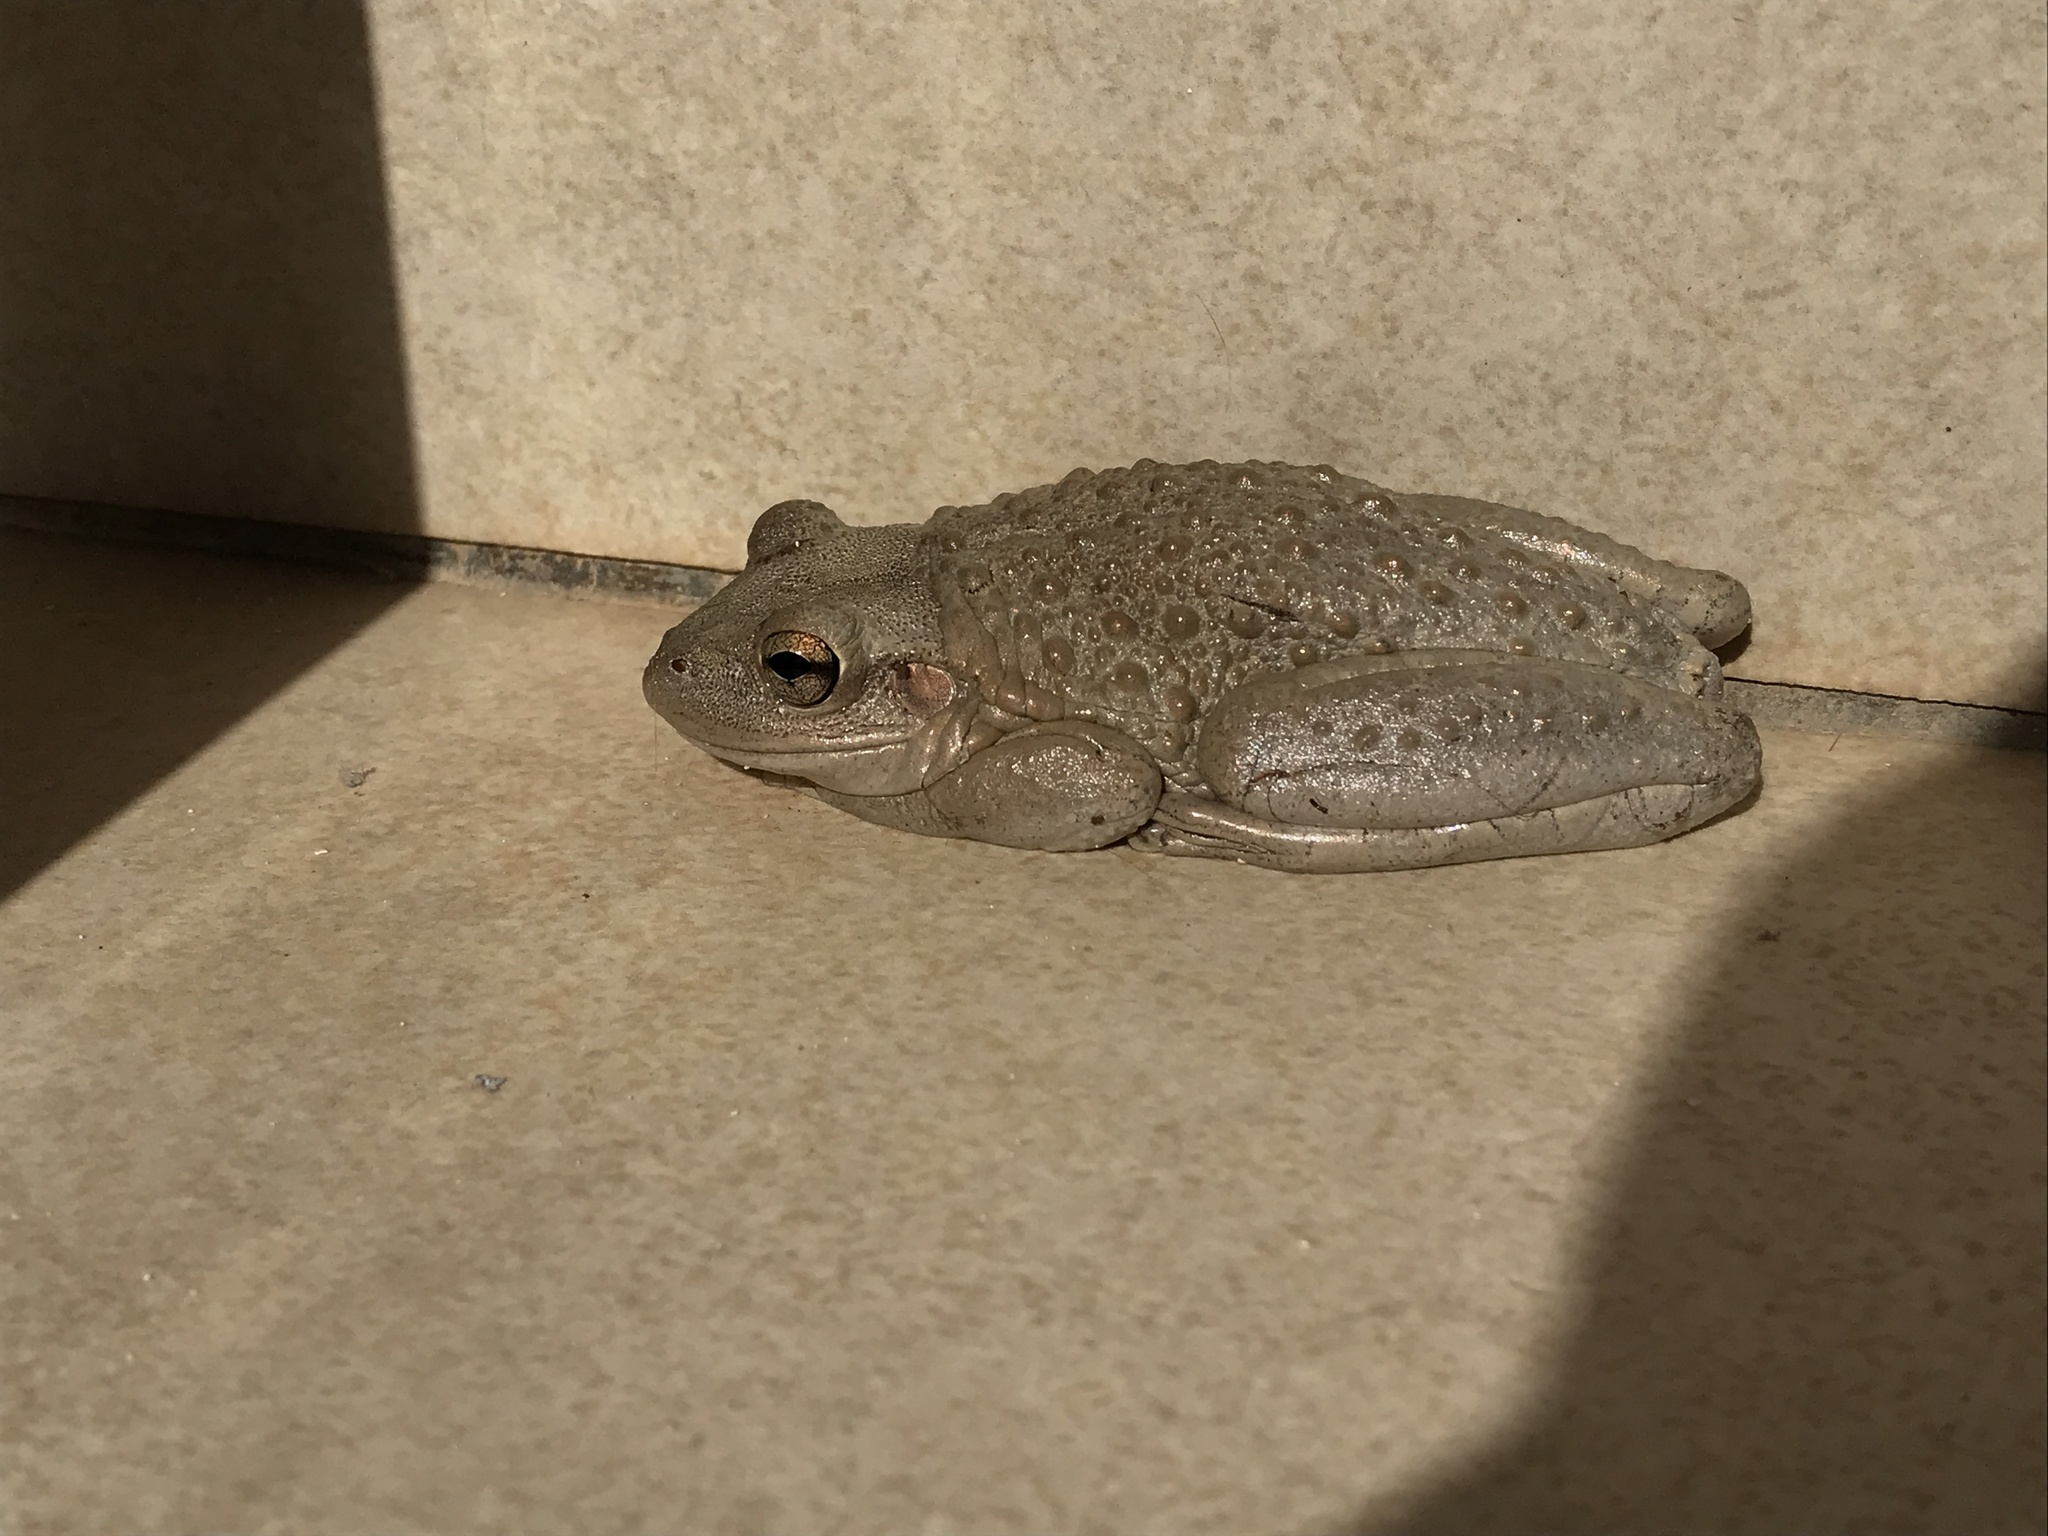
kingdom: Animalia
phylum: Chordata
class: Amphibia
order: Anura
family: Hylidae
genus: Osteopilus
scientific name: Osteopilus septentrionalis
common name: Cuban treefrog
